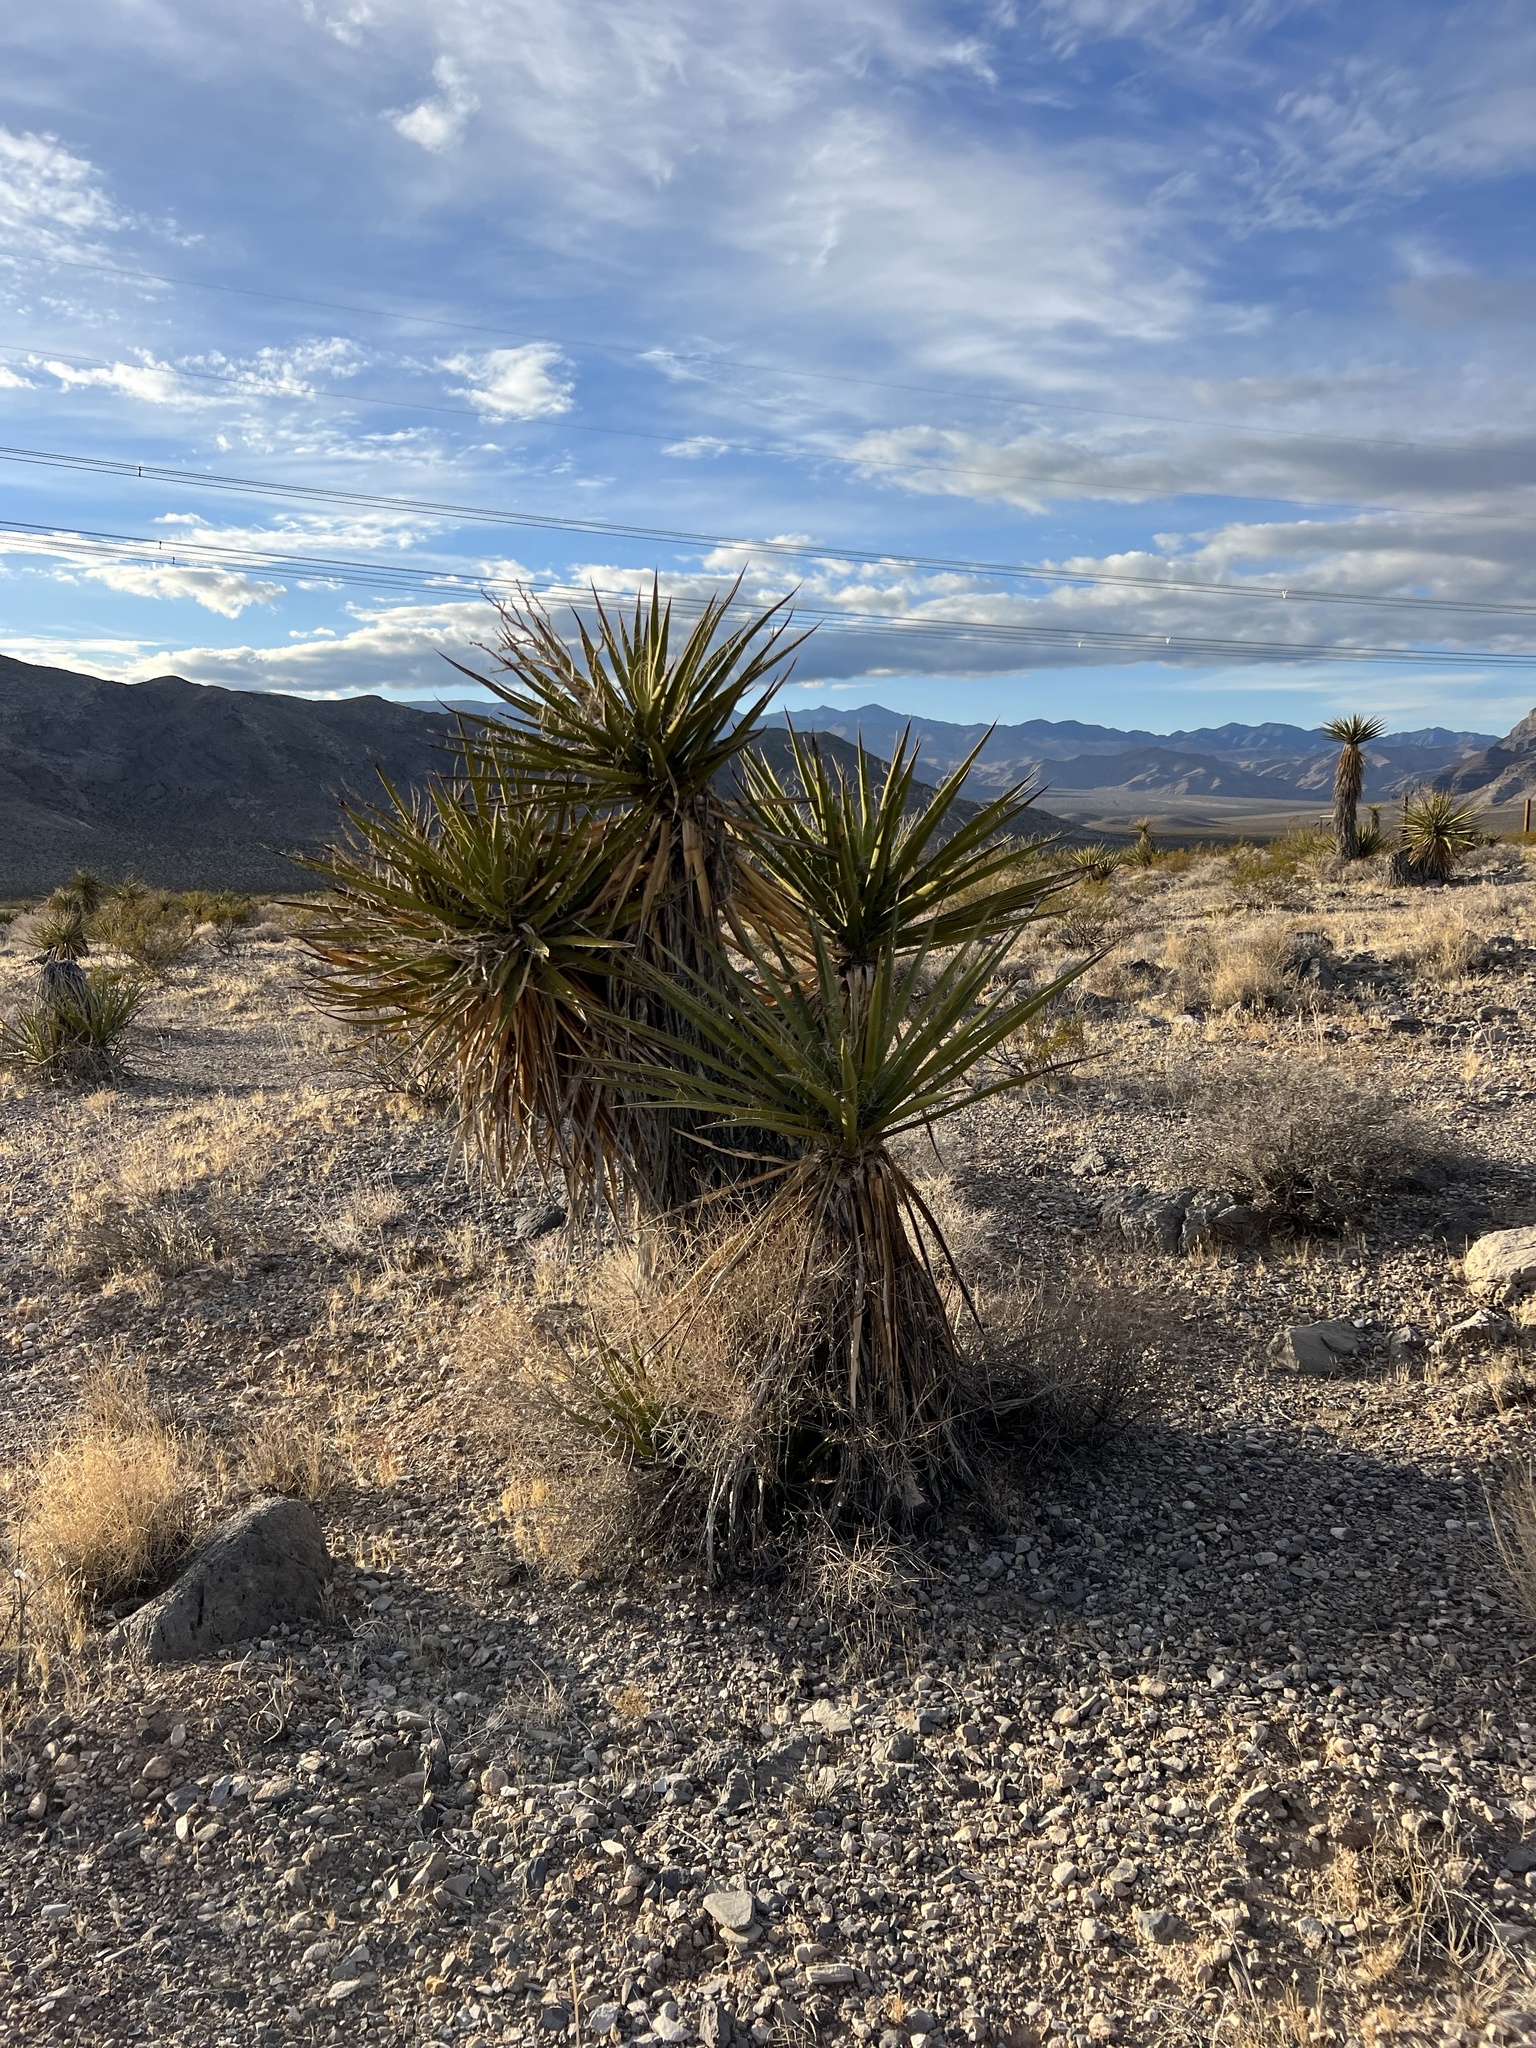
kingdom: Plantae
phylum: Tracheophyta
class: Liliopsida
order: Asparagales
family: Asparagaceae
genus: Yucca
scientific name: Yucca schidigera
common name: Mojave yucca
